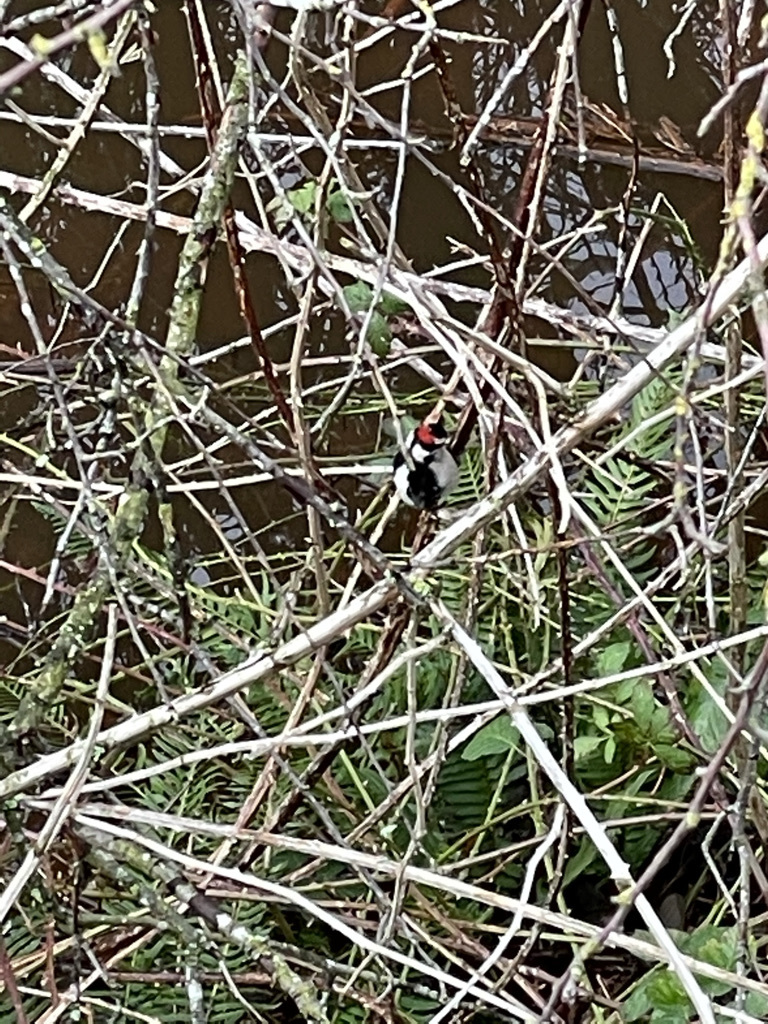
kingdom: Animalia
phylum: Chordata
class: Aves
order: Piciformes
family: Picidae
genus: Dryobates
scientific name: Dryobates pubescens
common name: Downy woodpecker
